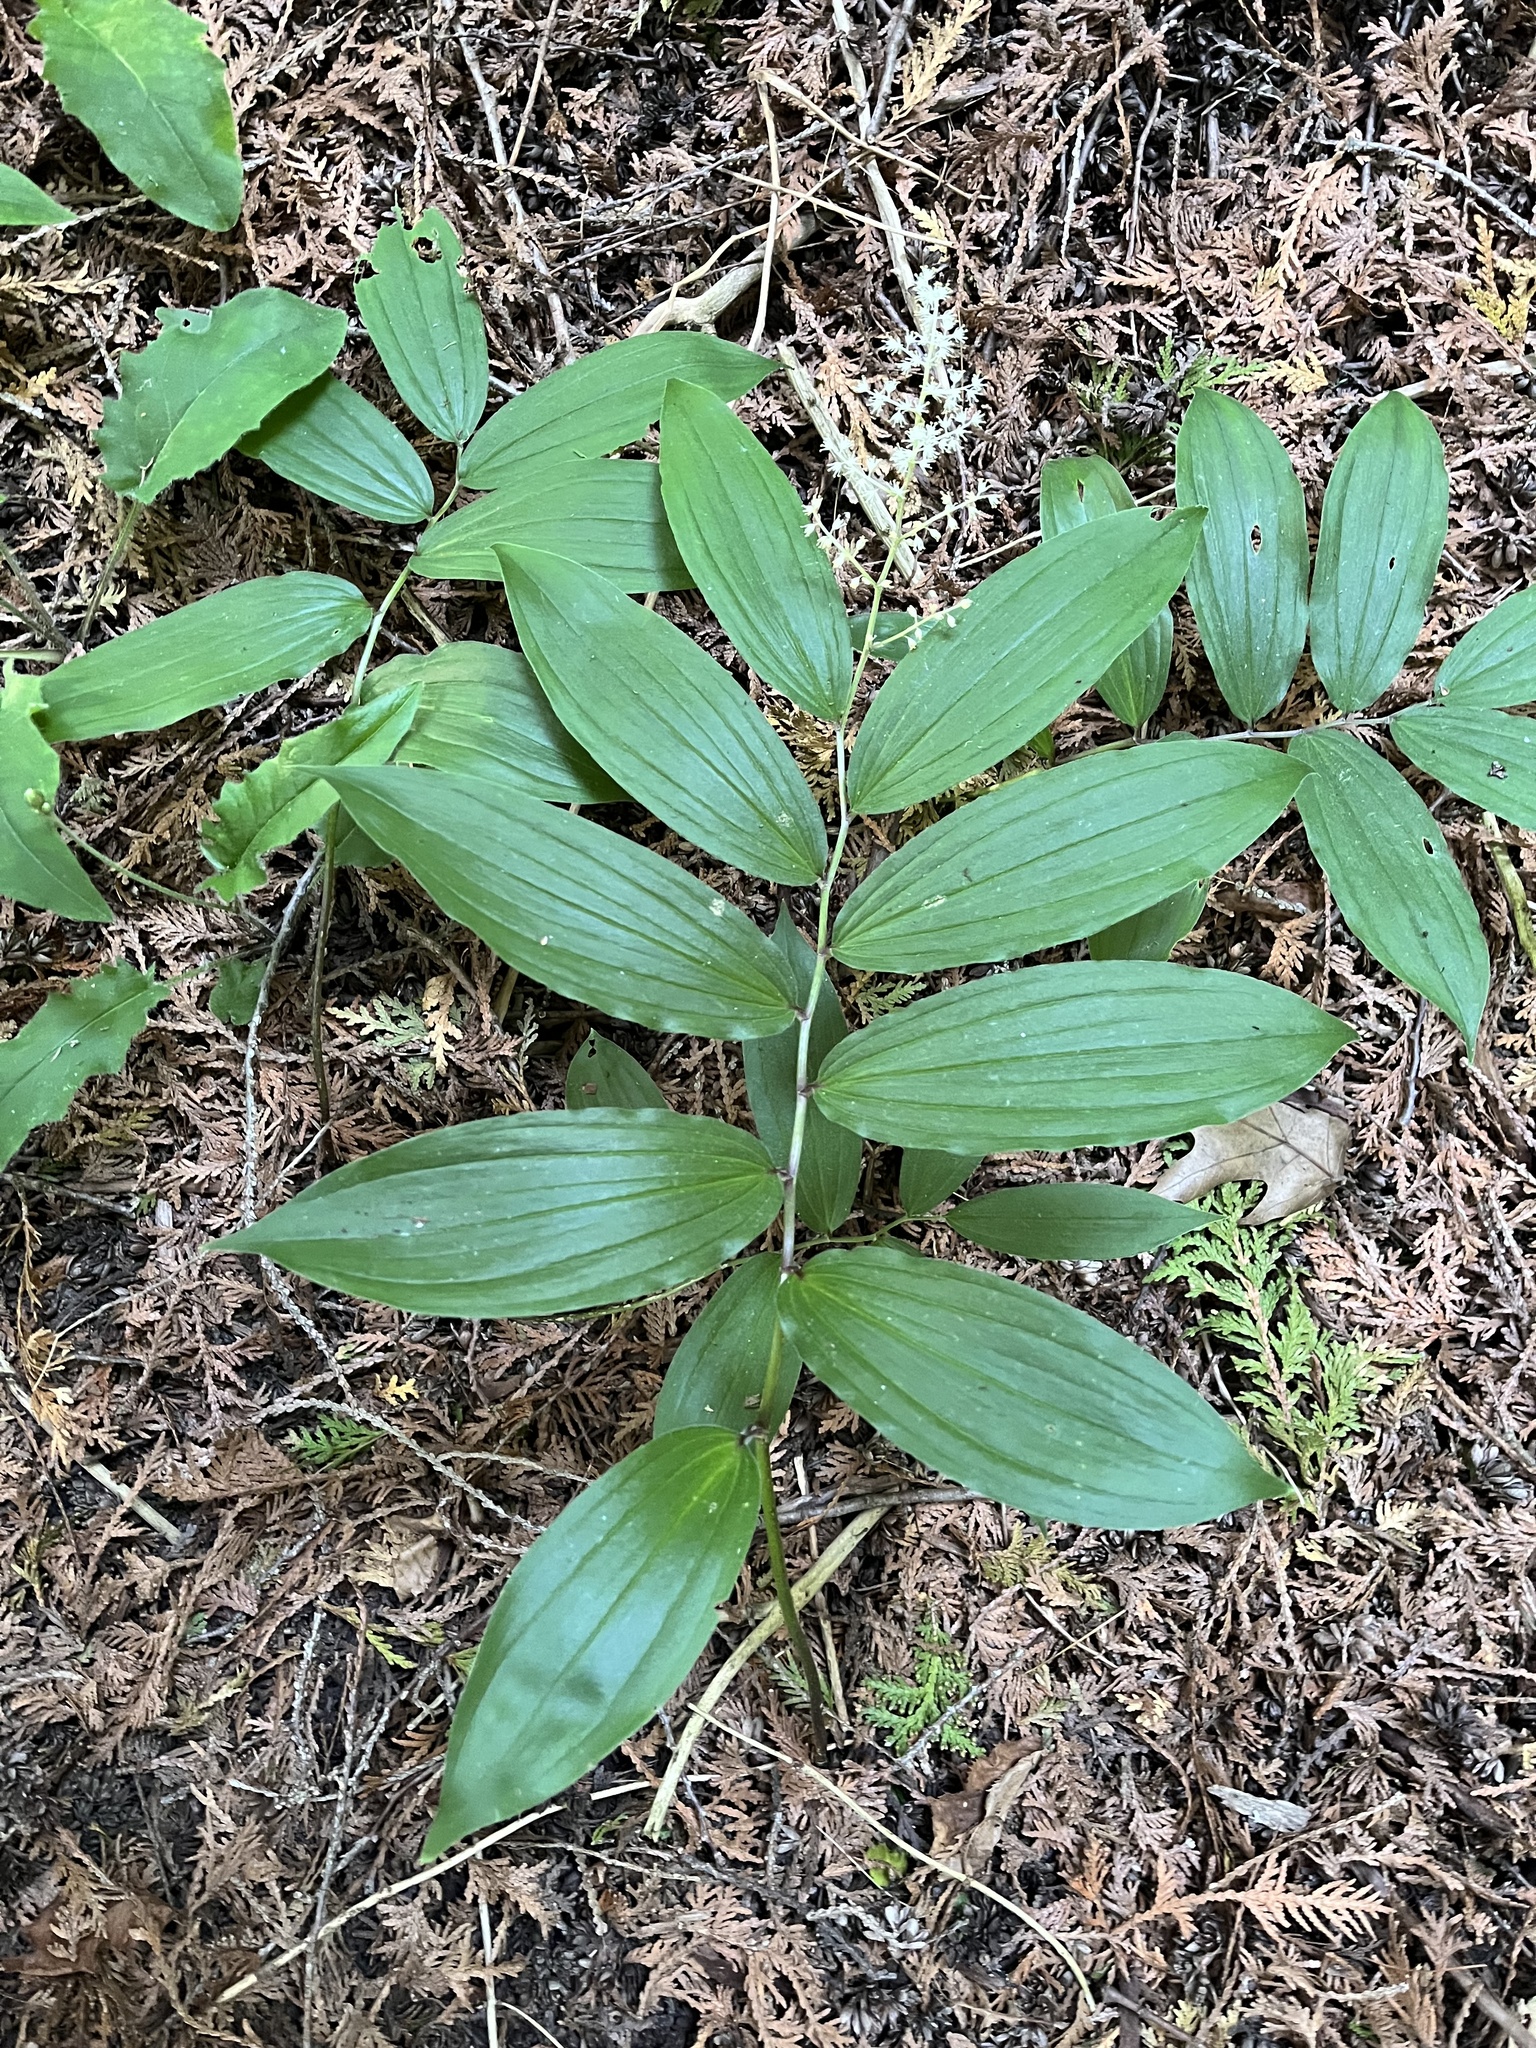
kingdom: Plantae
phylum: Tracheophyta
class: Liliopsida
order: Asparagales
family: Asparagaceae
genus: Maianthemum
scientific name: Maianthemum racemosum
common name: False spikenard
